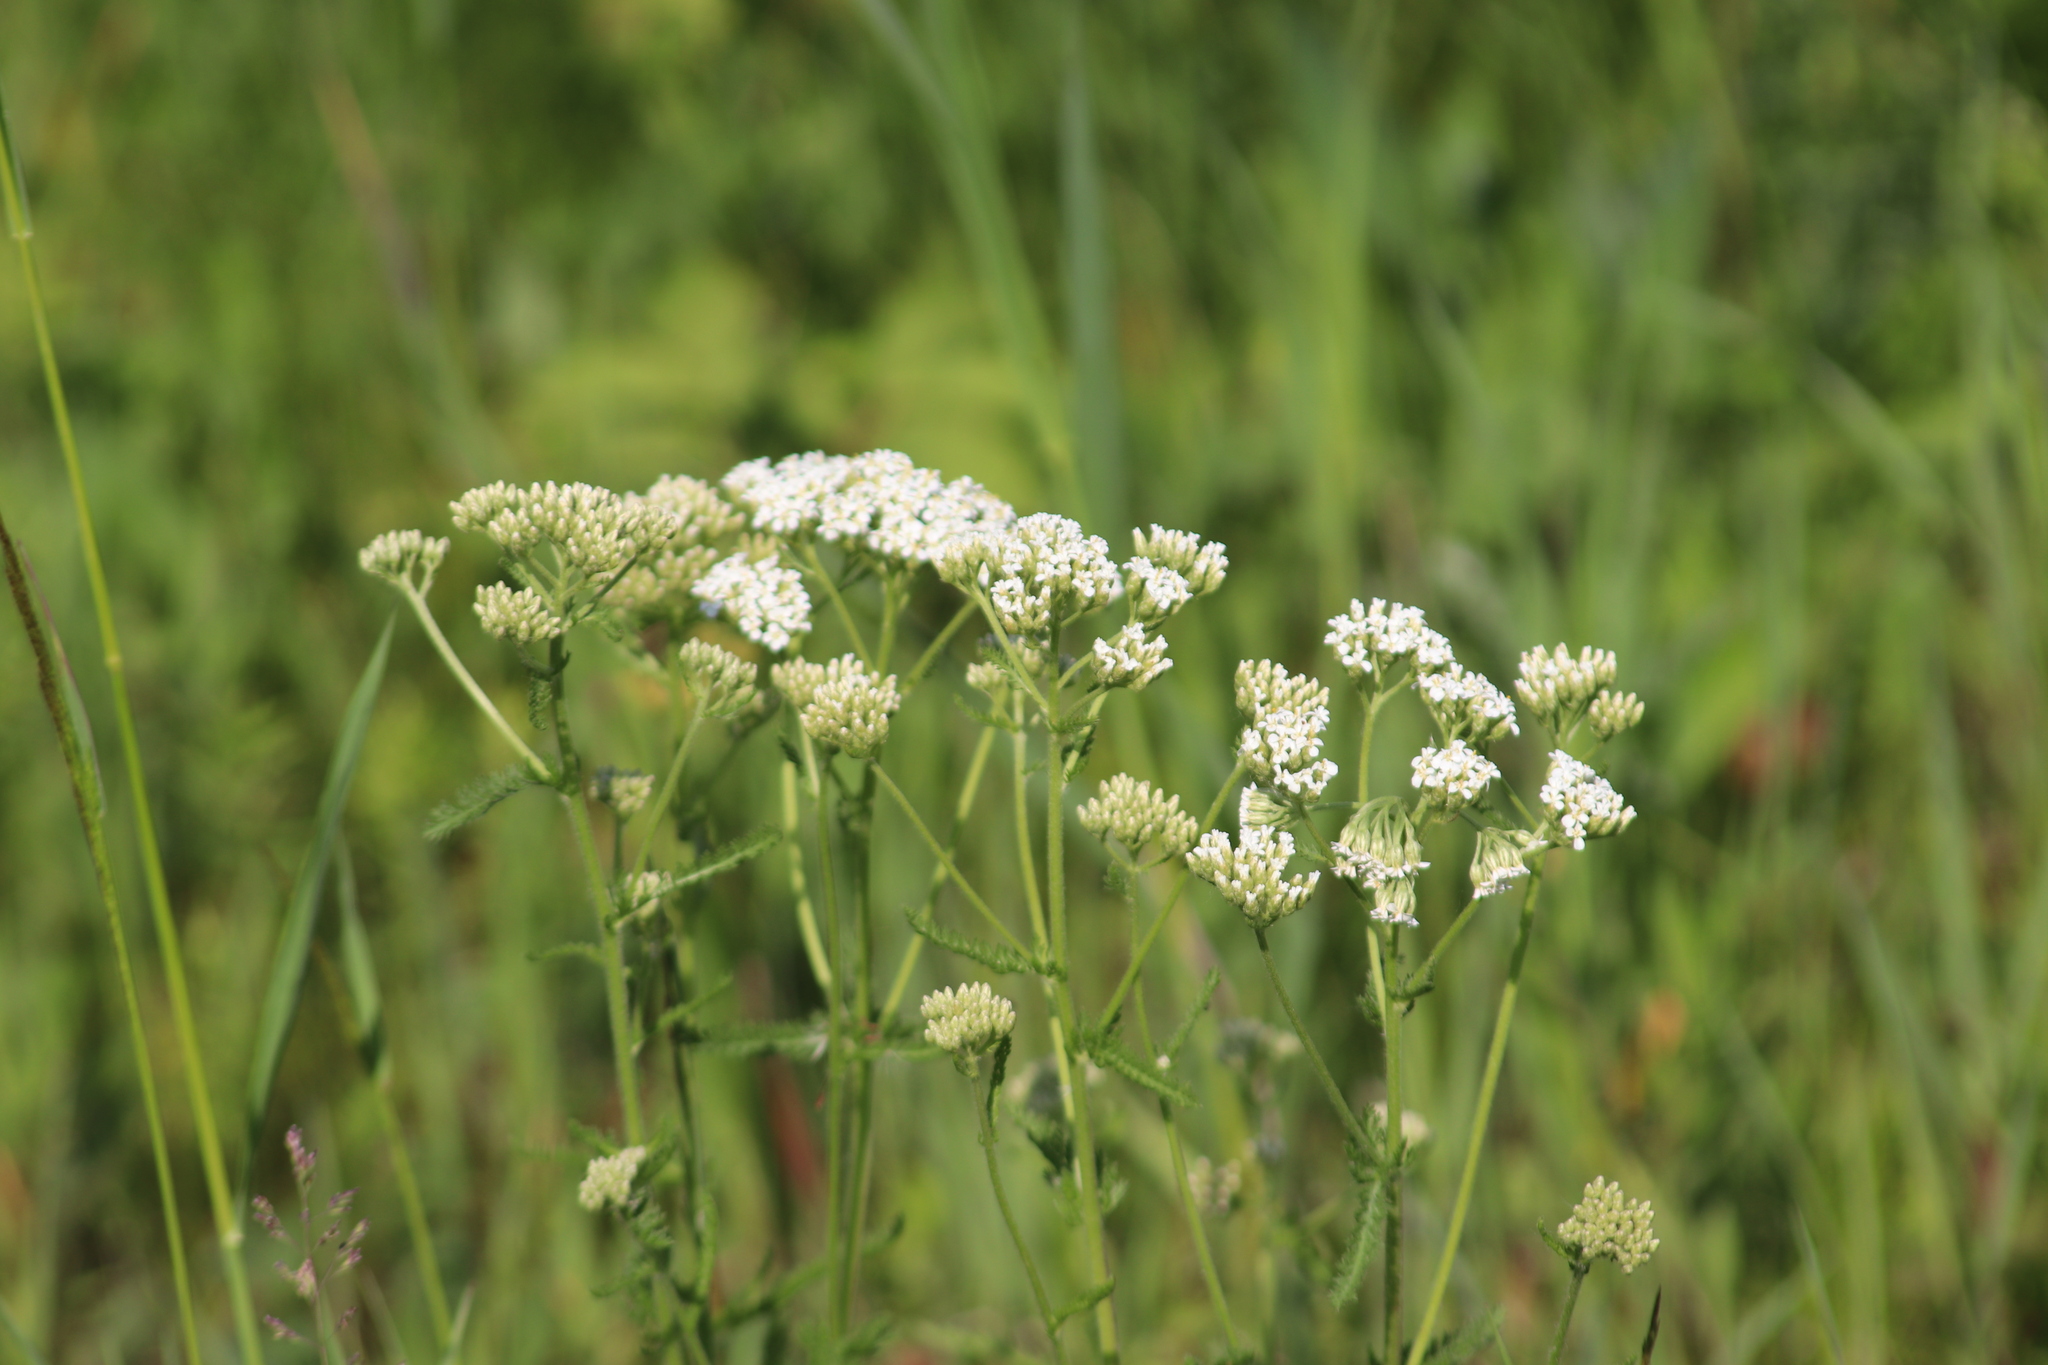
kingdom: Plantae
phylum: Tracheophyta
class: Magnoliopsida
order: Asterales
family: Asteraceae
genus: Achillea
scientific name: Achillea millefolium
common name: Yarrow
